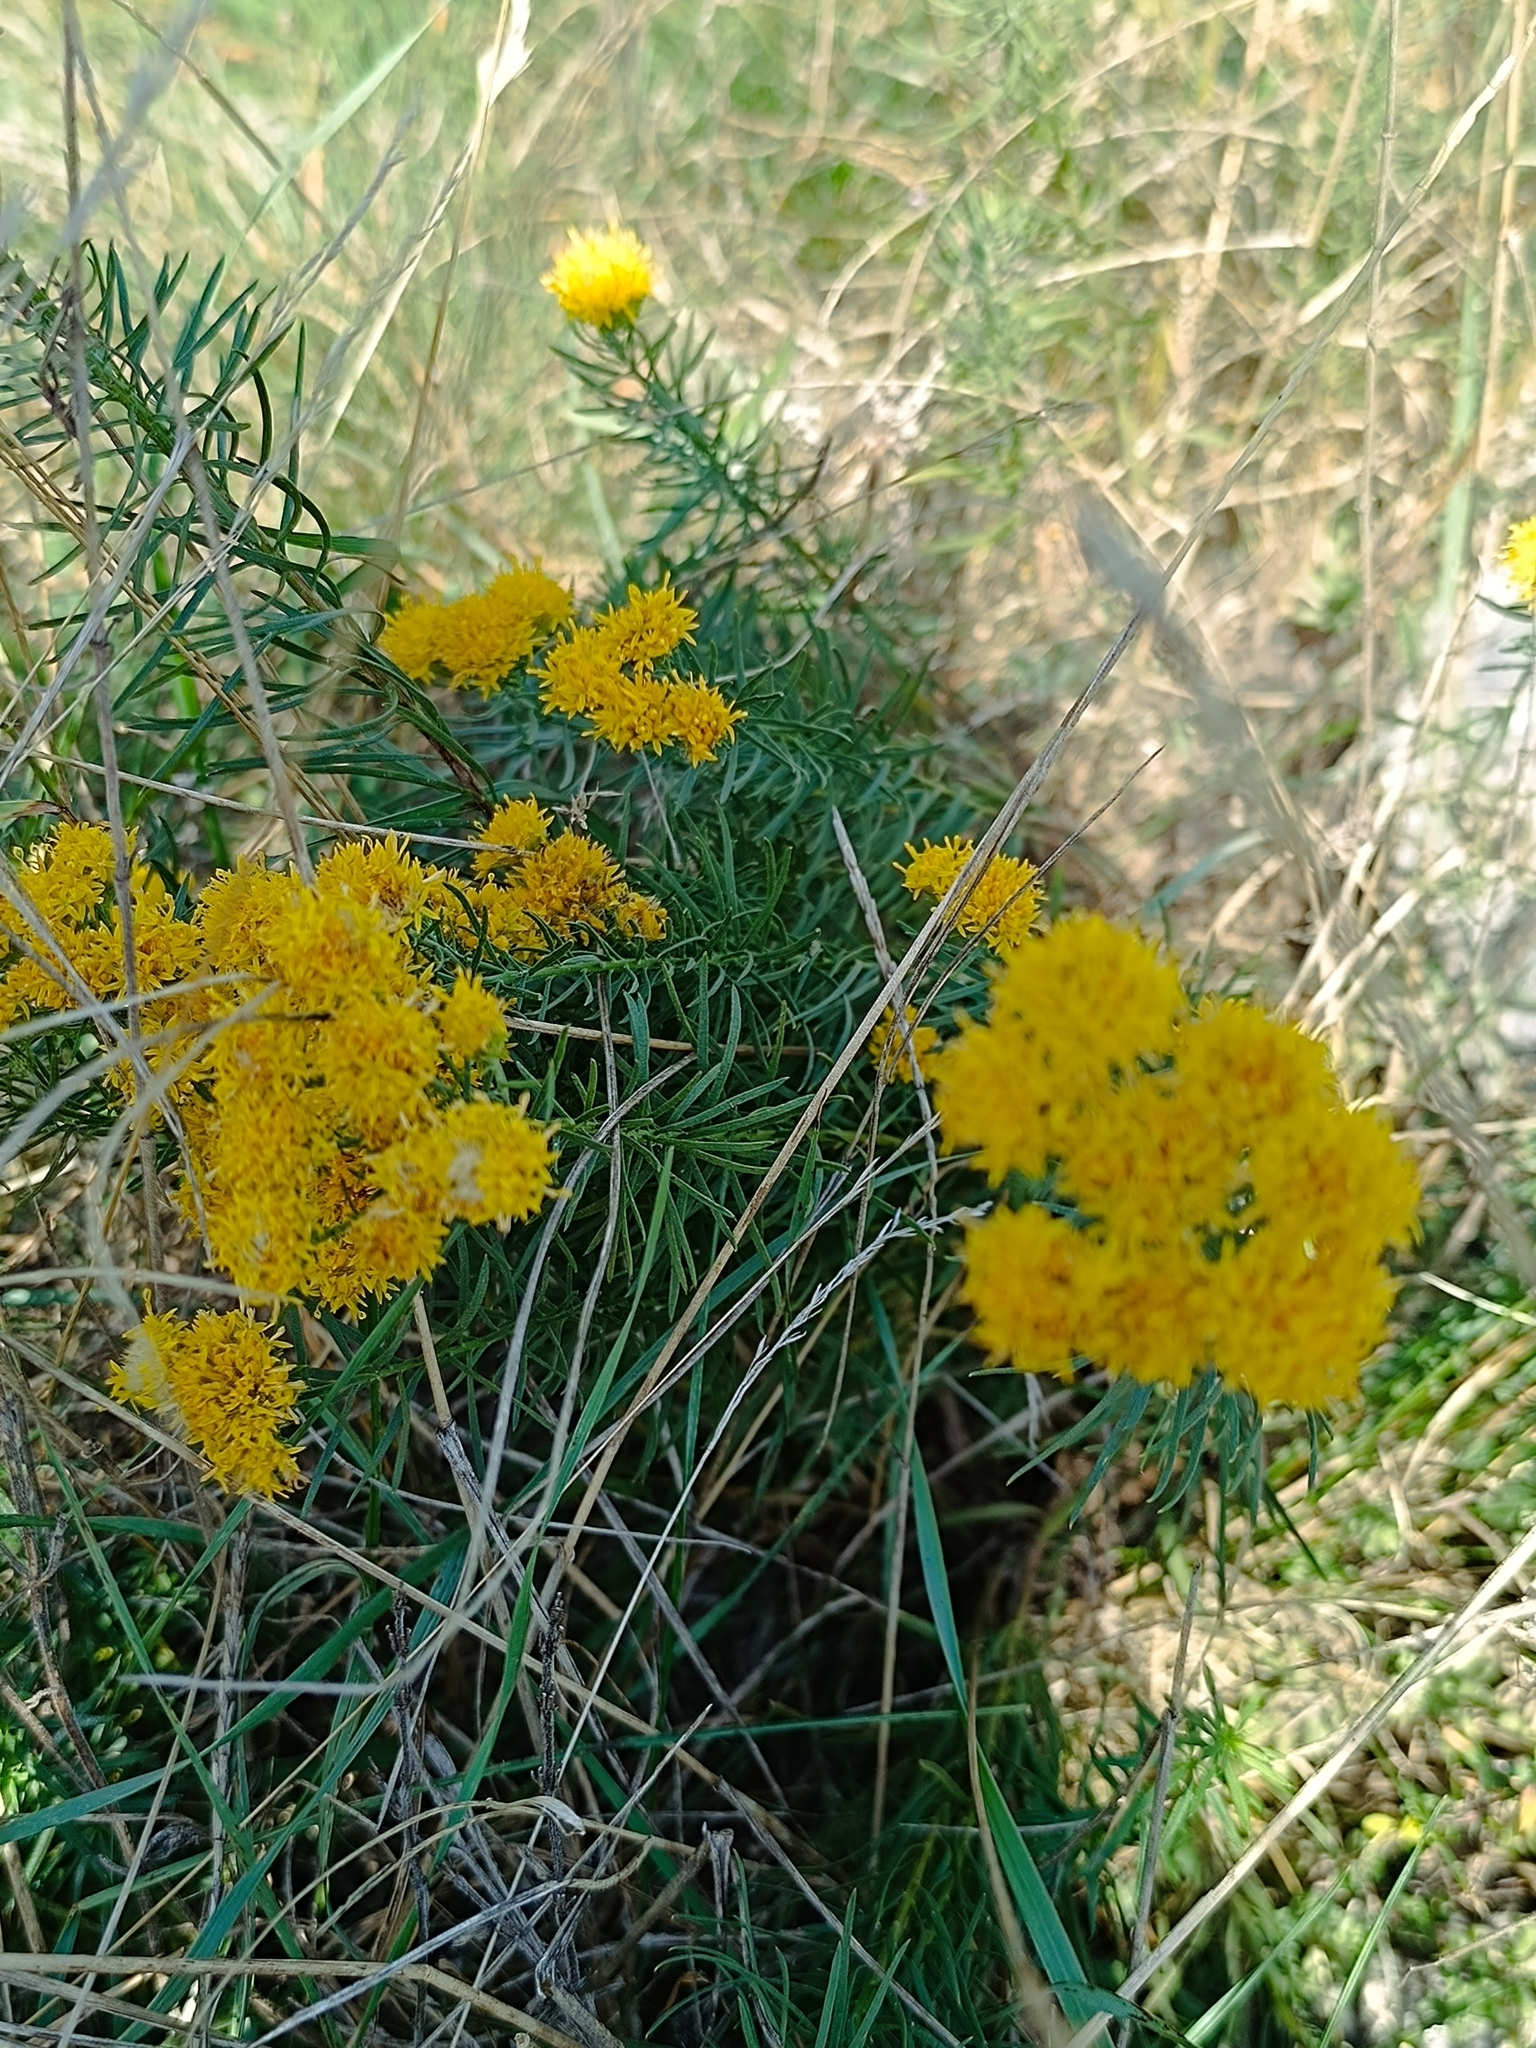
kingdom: Plantae
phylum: Tracheophyta
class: Magnoliopsida
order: Asterales
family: Asteraceae
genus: Galatella
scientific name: Galatella linosyris
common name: Goldilocks aster
